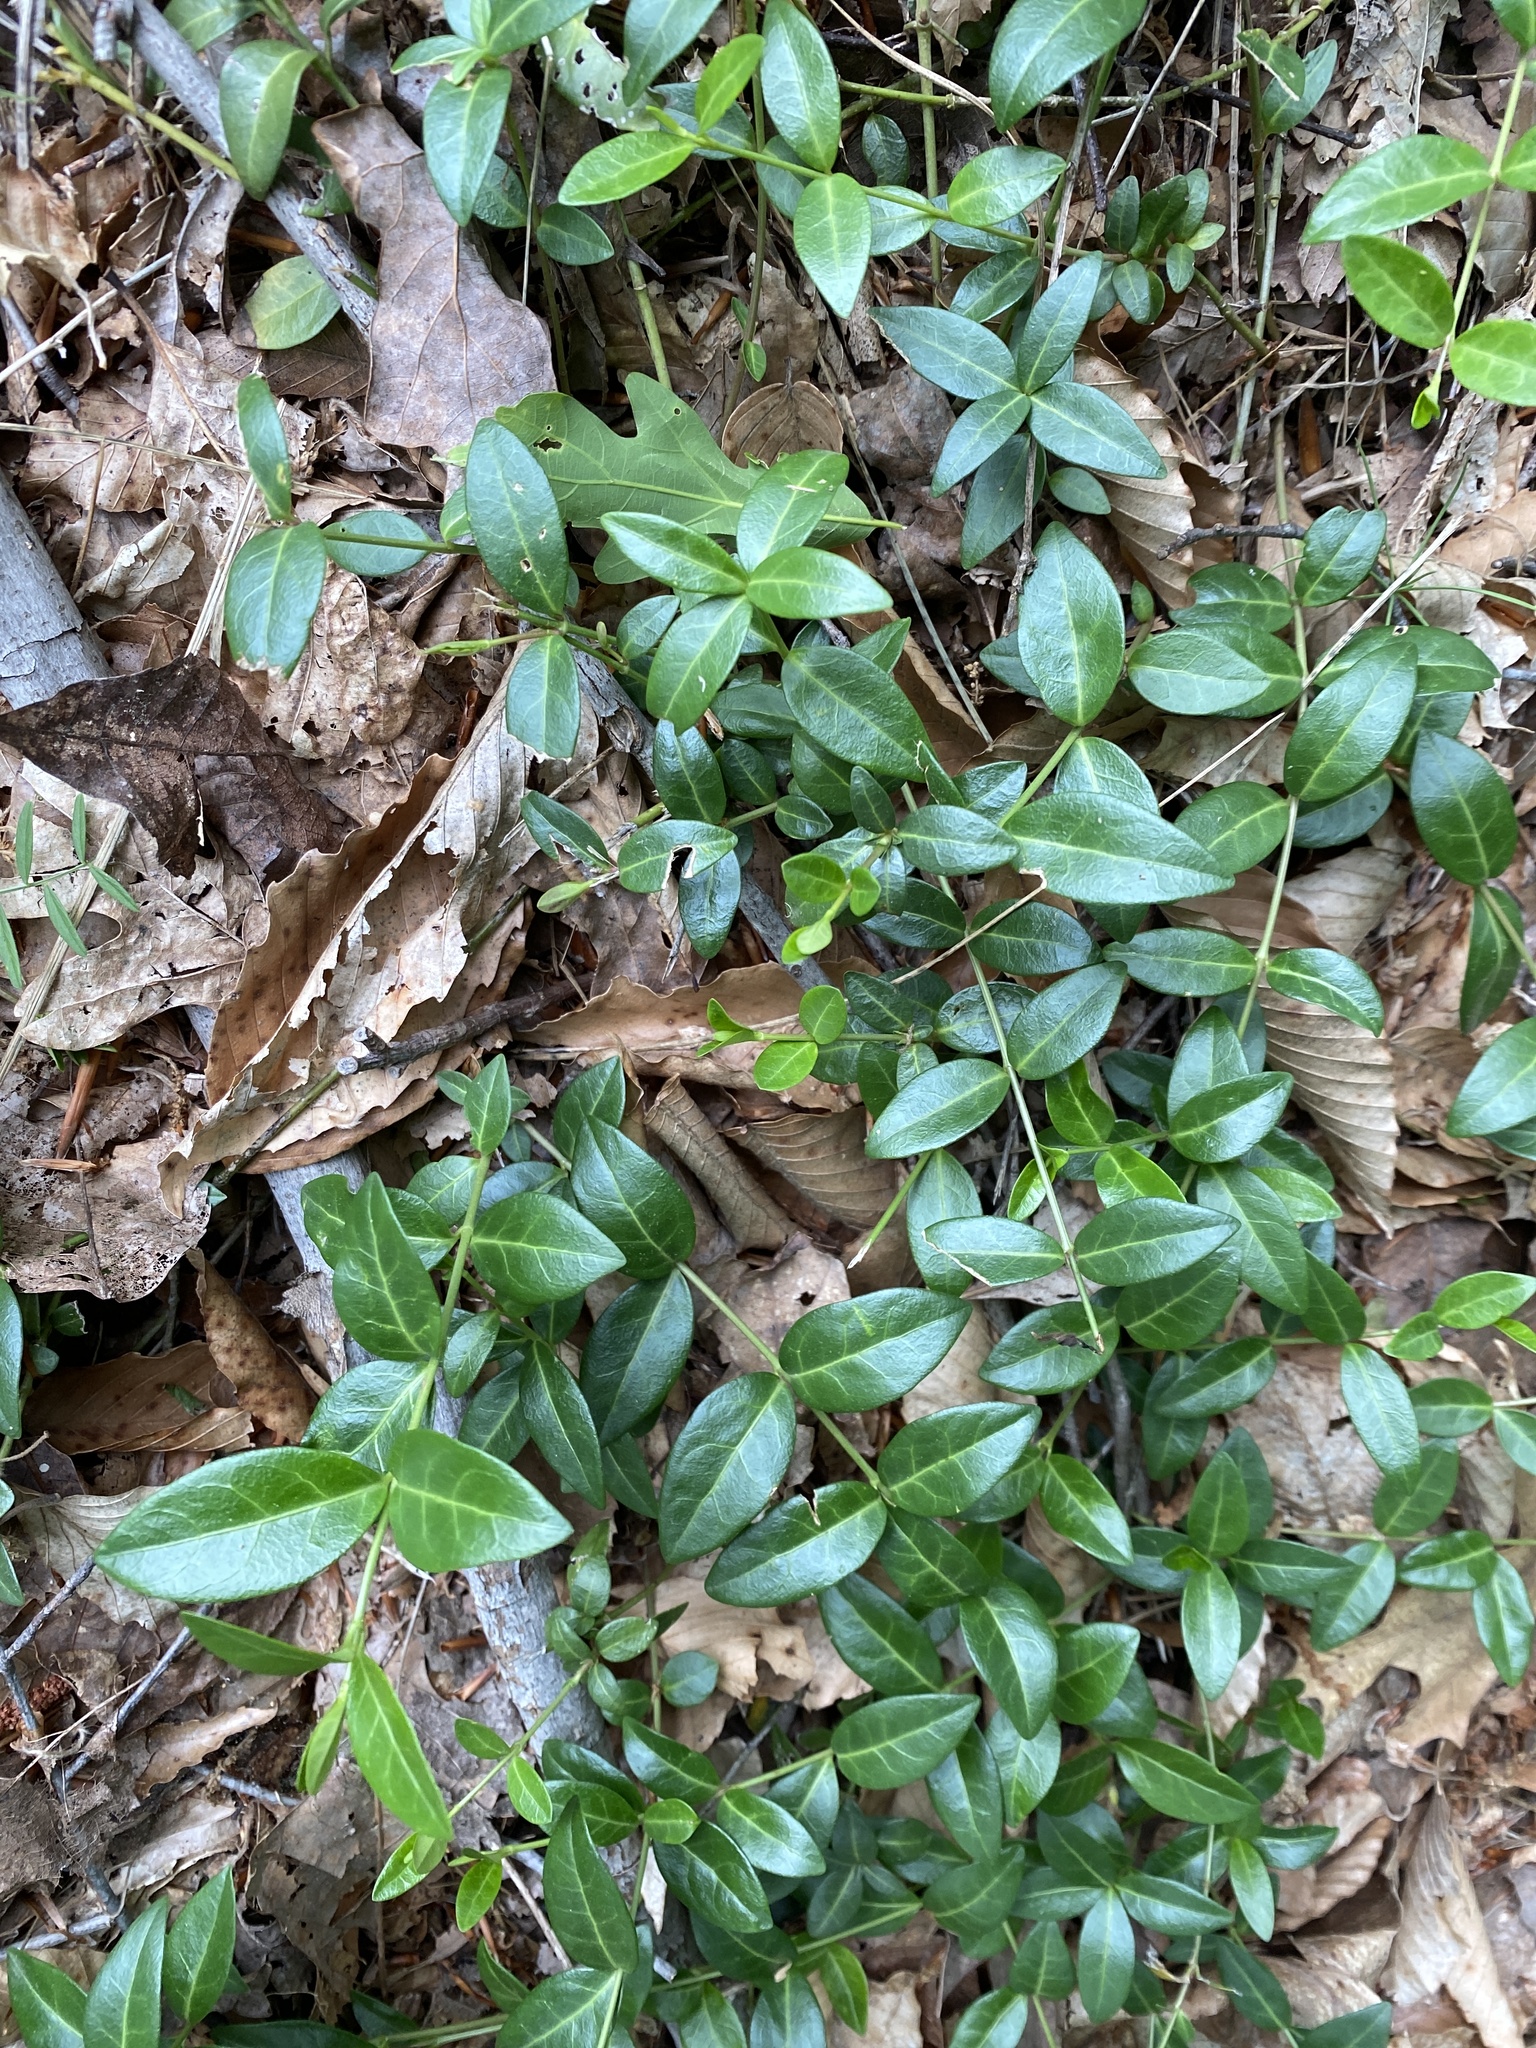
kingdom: Plantae
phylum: Tracheophyta
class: Magnoliopsida
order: Gentianales
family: Apocynaceae
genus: Vinca
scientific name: Vinca minor
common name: Lesser periwinkle
